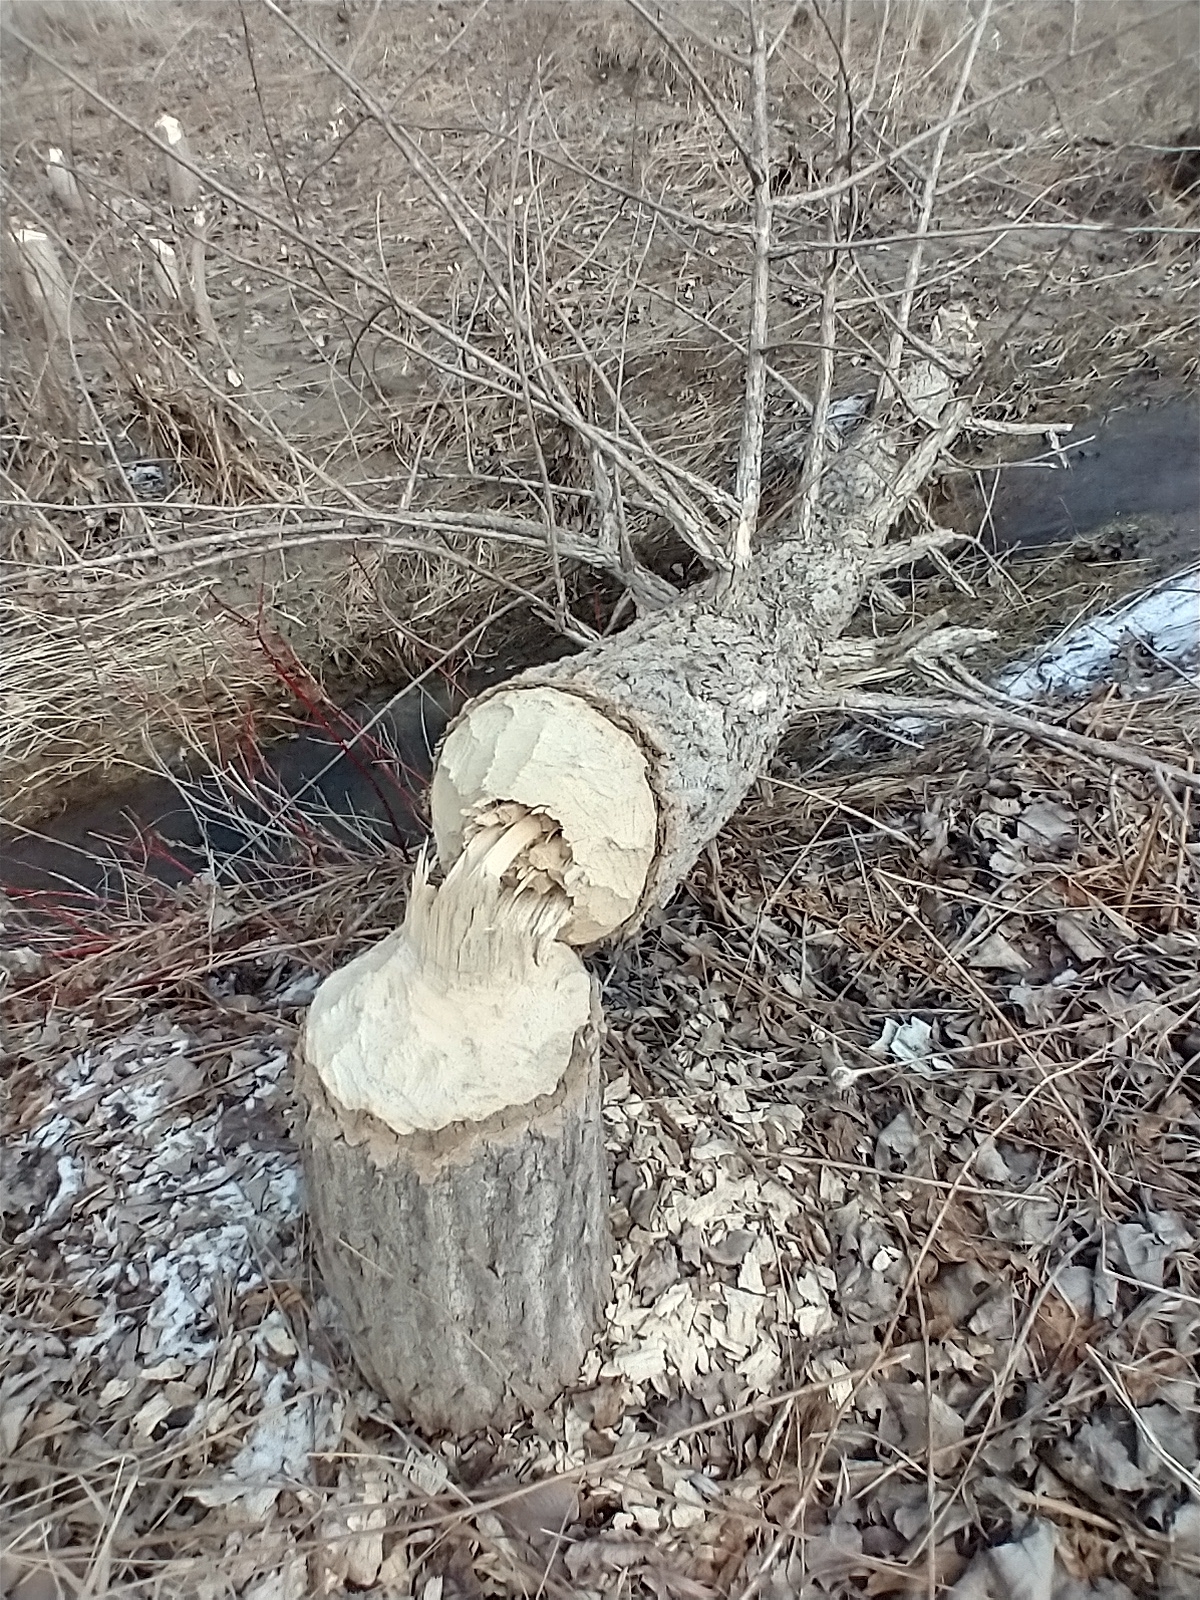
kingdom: Animalia
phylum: Chordata
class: Mammalia
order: Rodentia
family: Castoridae
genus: Castor
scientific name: Castor canadensis
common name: American beaver
